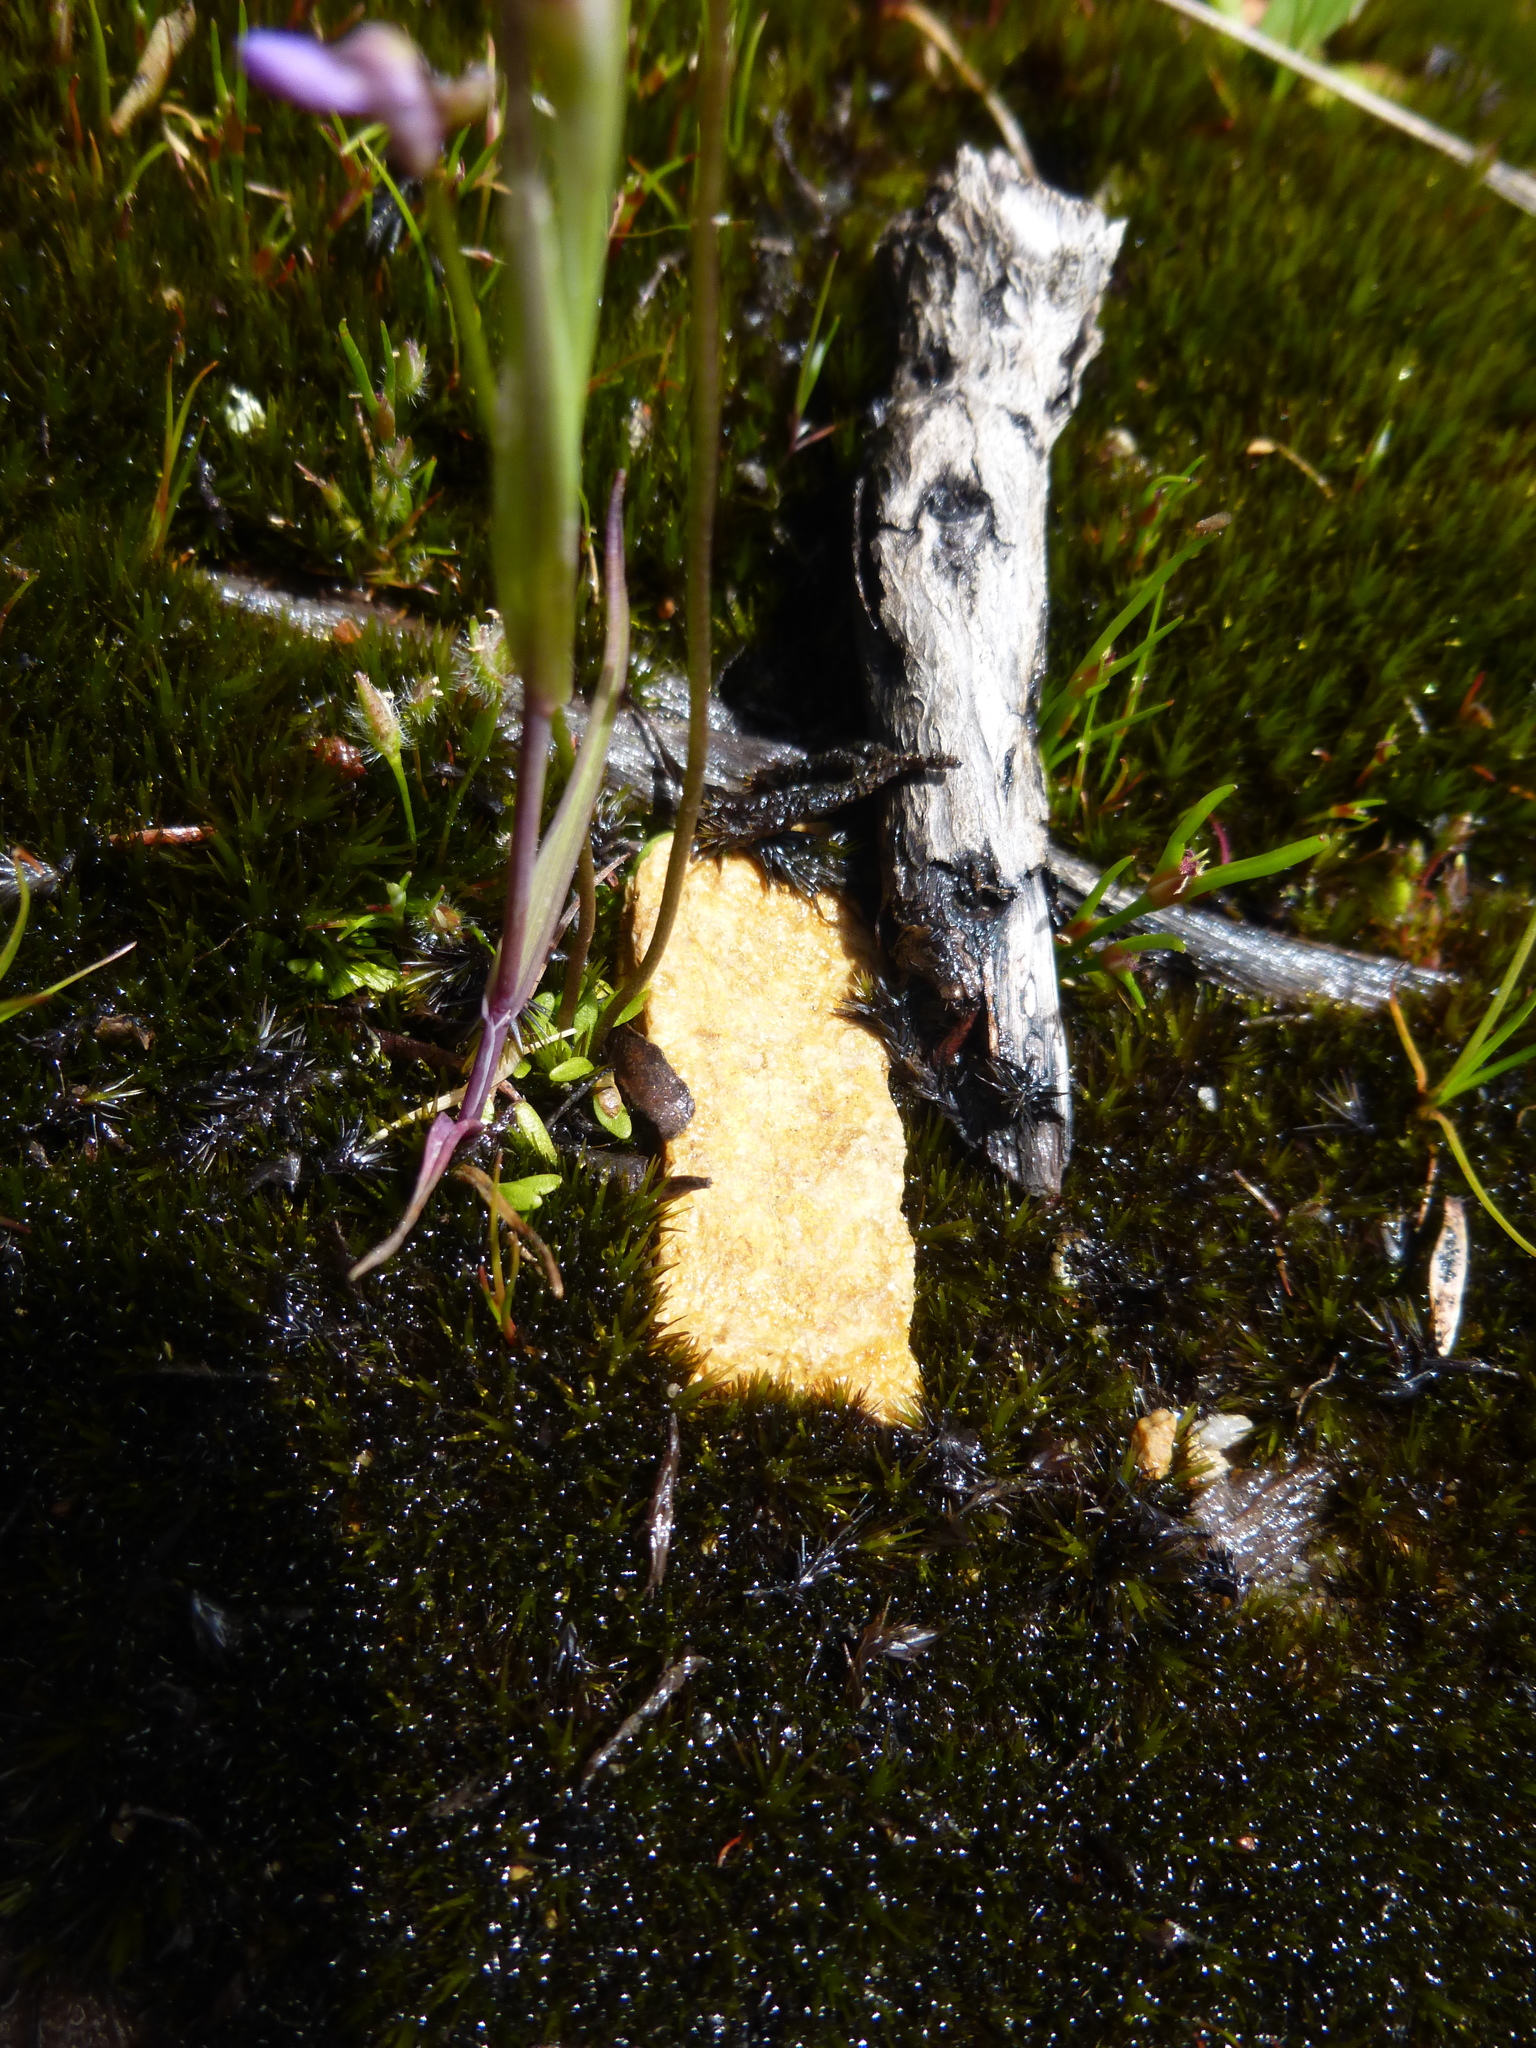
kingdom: Plantae
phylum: Tracheophyta
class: Magnoliopsida
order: Lamiales
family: Lentibulariaceae
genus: Utricularia
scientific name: Utricularia grampiana
